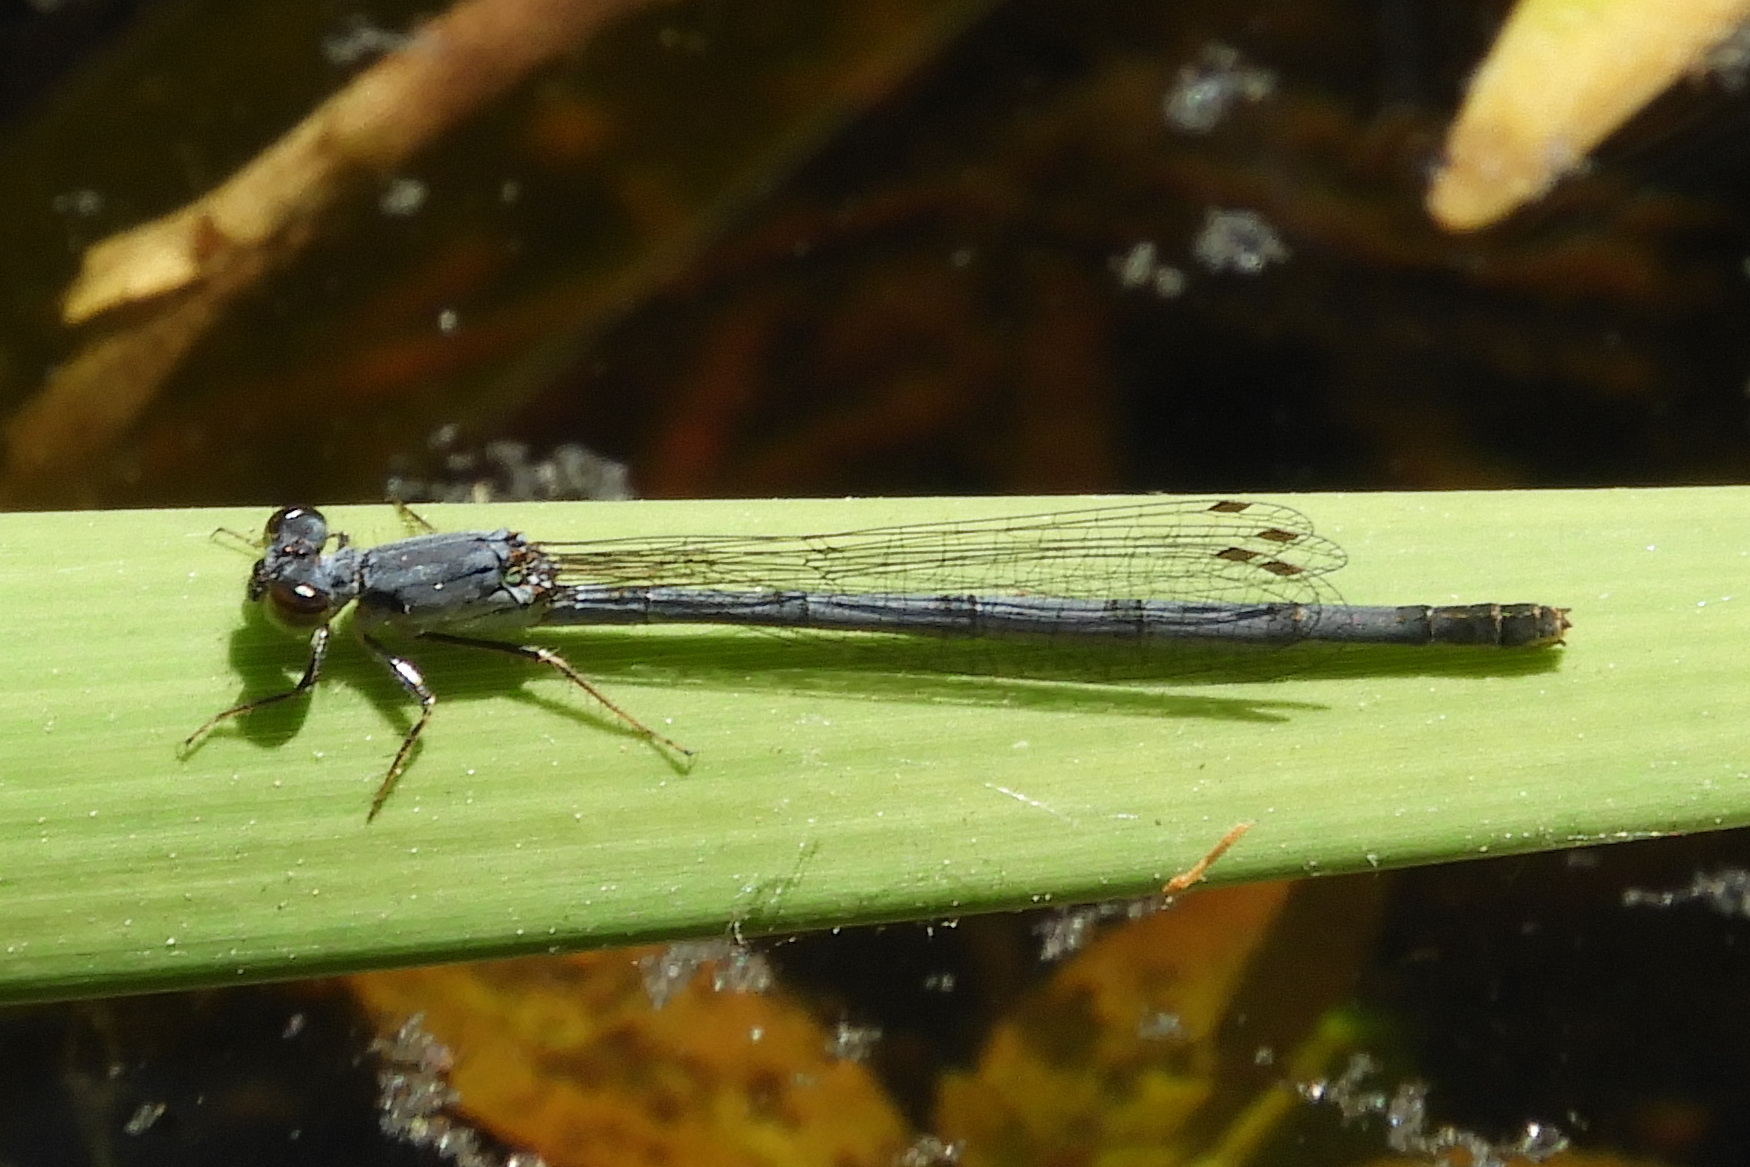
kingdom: Animalia
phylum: Arthropoda
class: Insecta
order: Odonata
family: Coenagrionidae
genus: Ischnura
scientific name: Ischnura posita
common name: Fragile forktail
